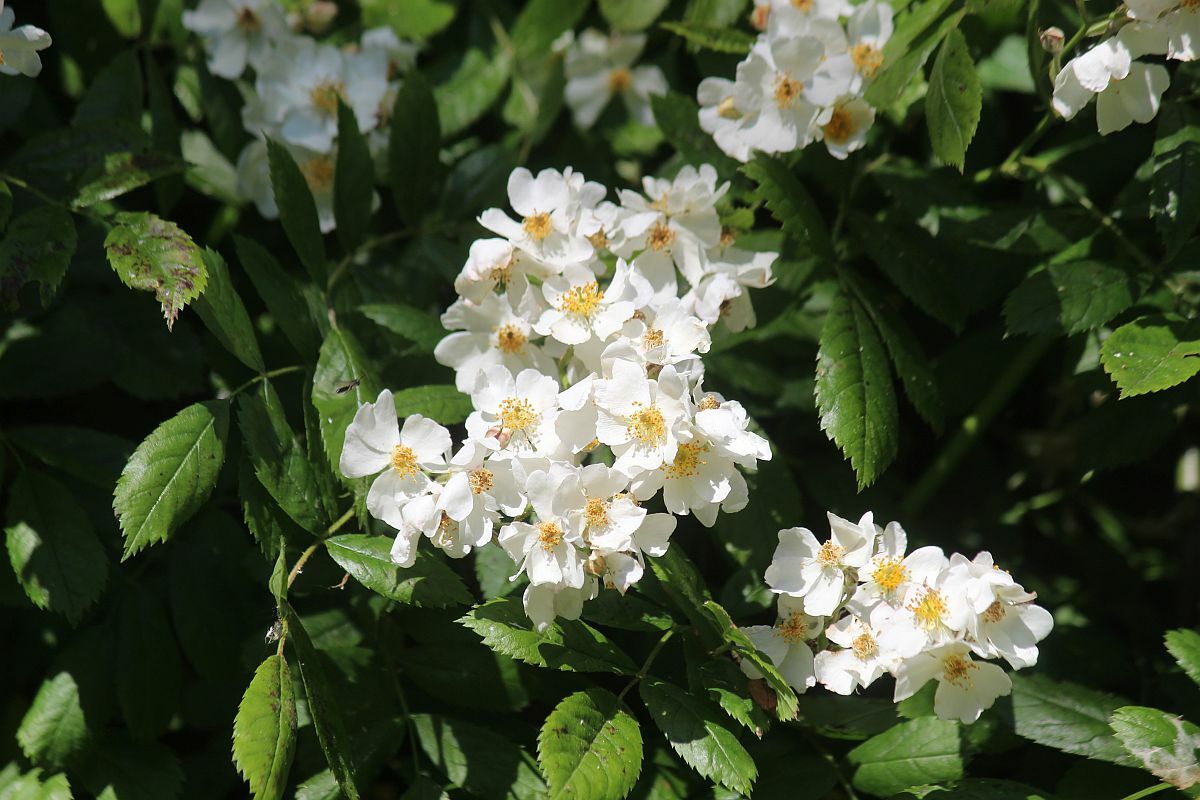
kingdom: Plantae
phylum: Tracheophyta
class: Magnoliopsida
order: Rosales
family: Rosaceae
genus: Rosa
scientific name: Rosa multiflora
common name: Multiflora rose
